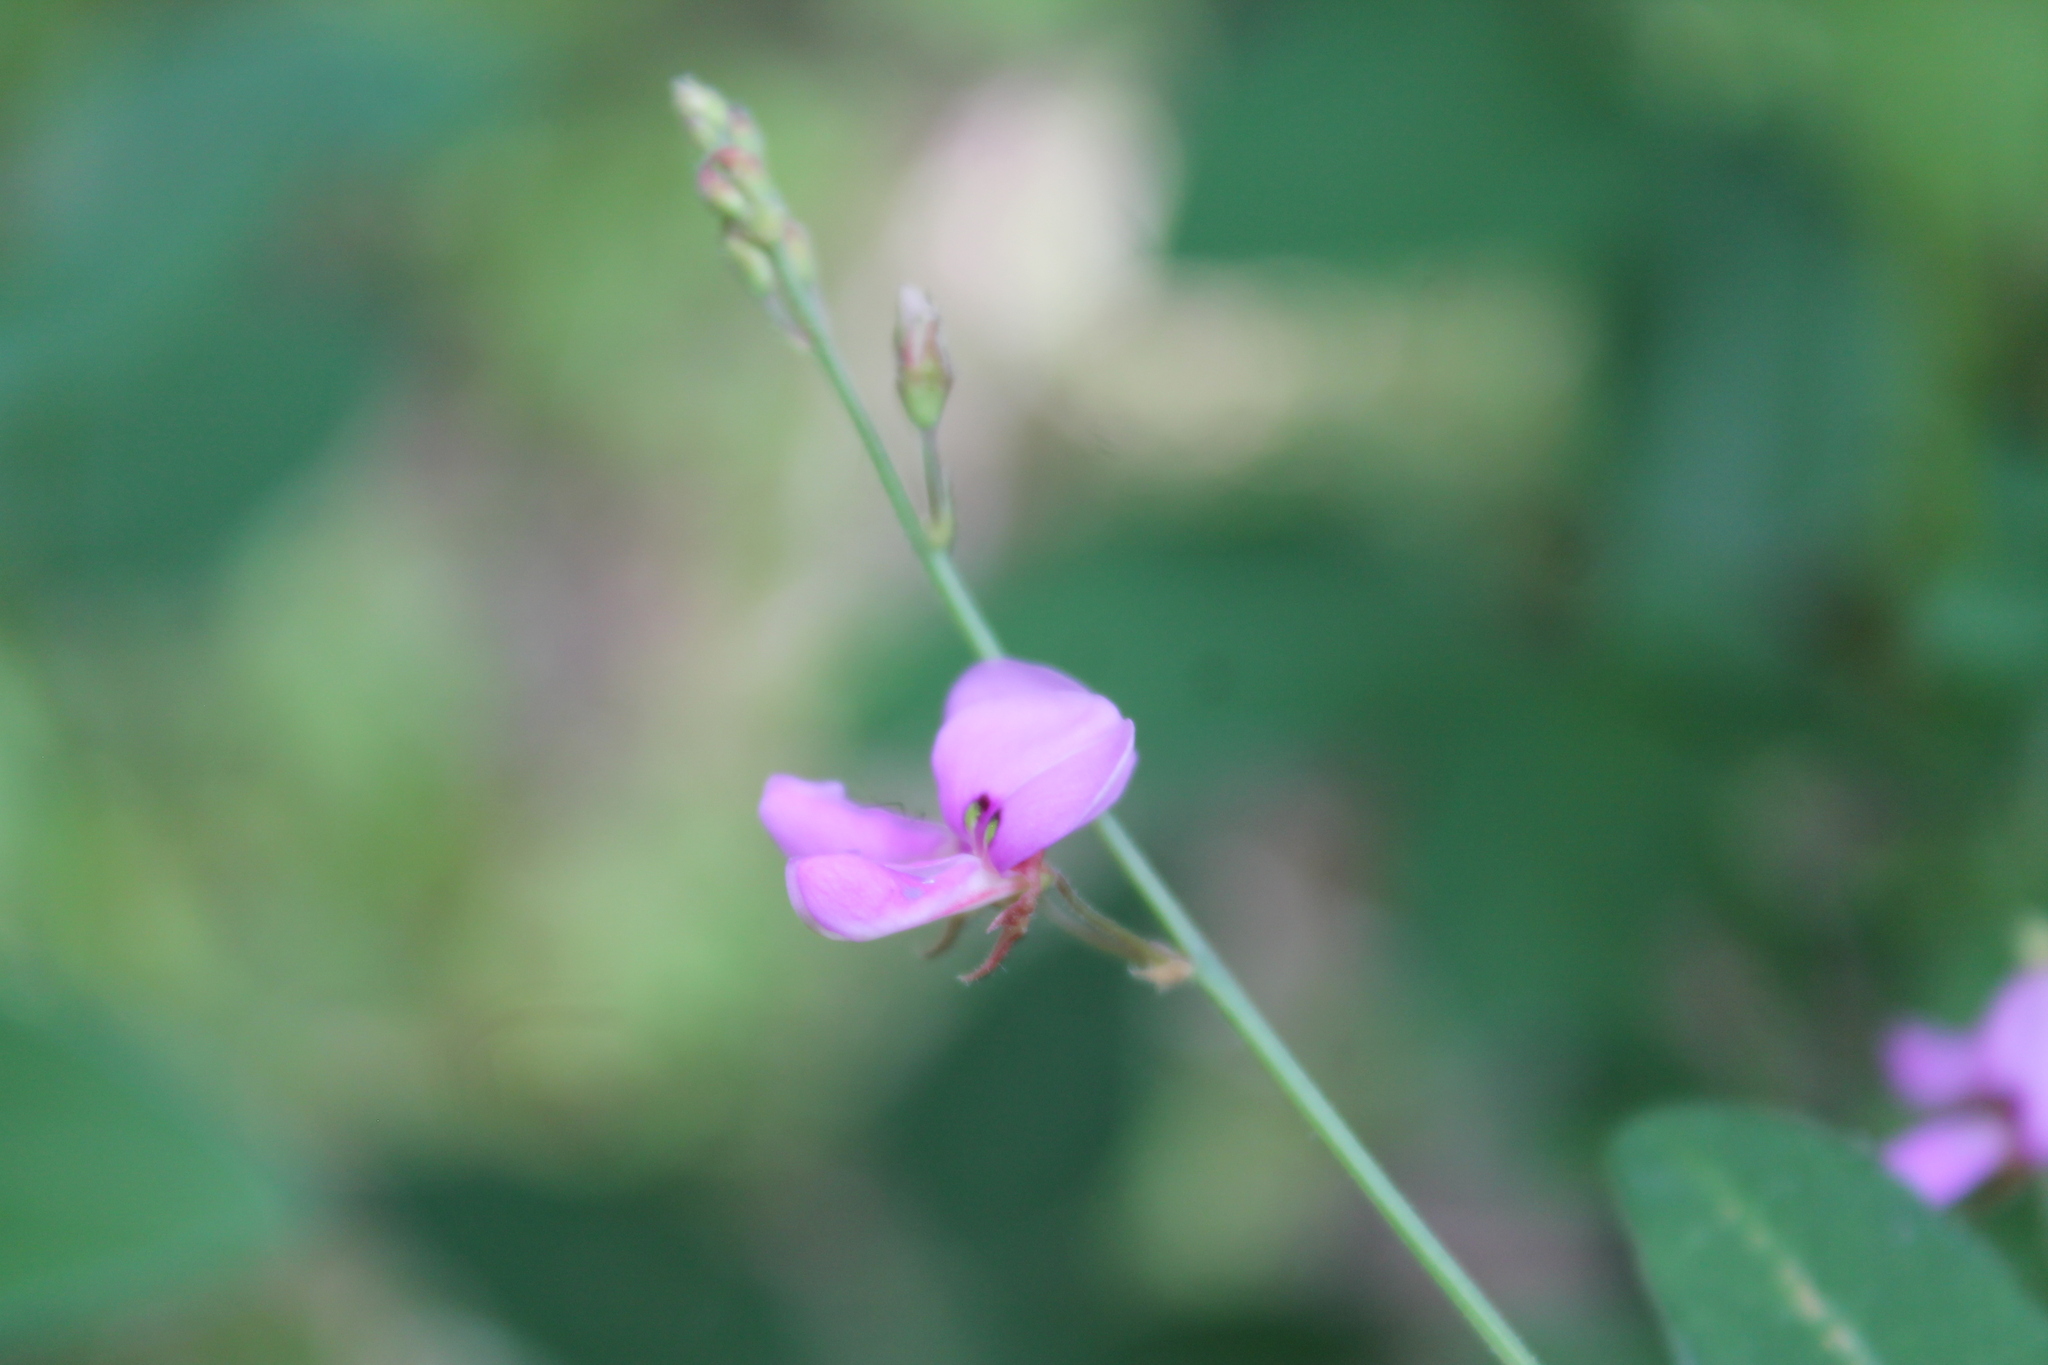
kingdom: Plantae
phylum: Tracheophyta
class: Magnoliopsida
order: Fabales
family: Fabaceae
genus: Desmodium
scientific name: Desmodium paniculatum
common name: Panicled tick-clover
